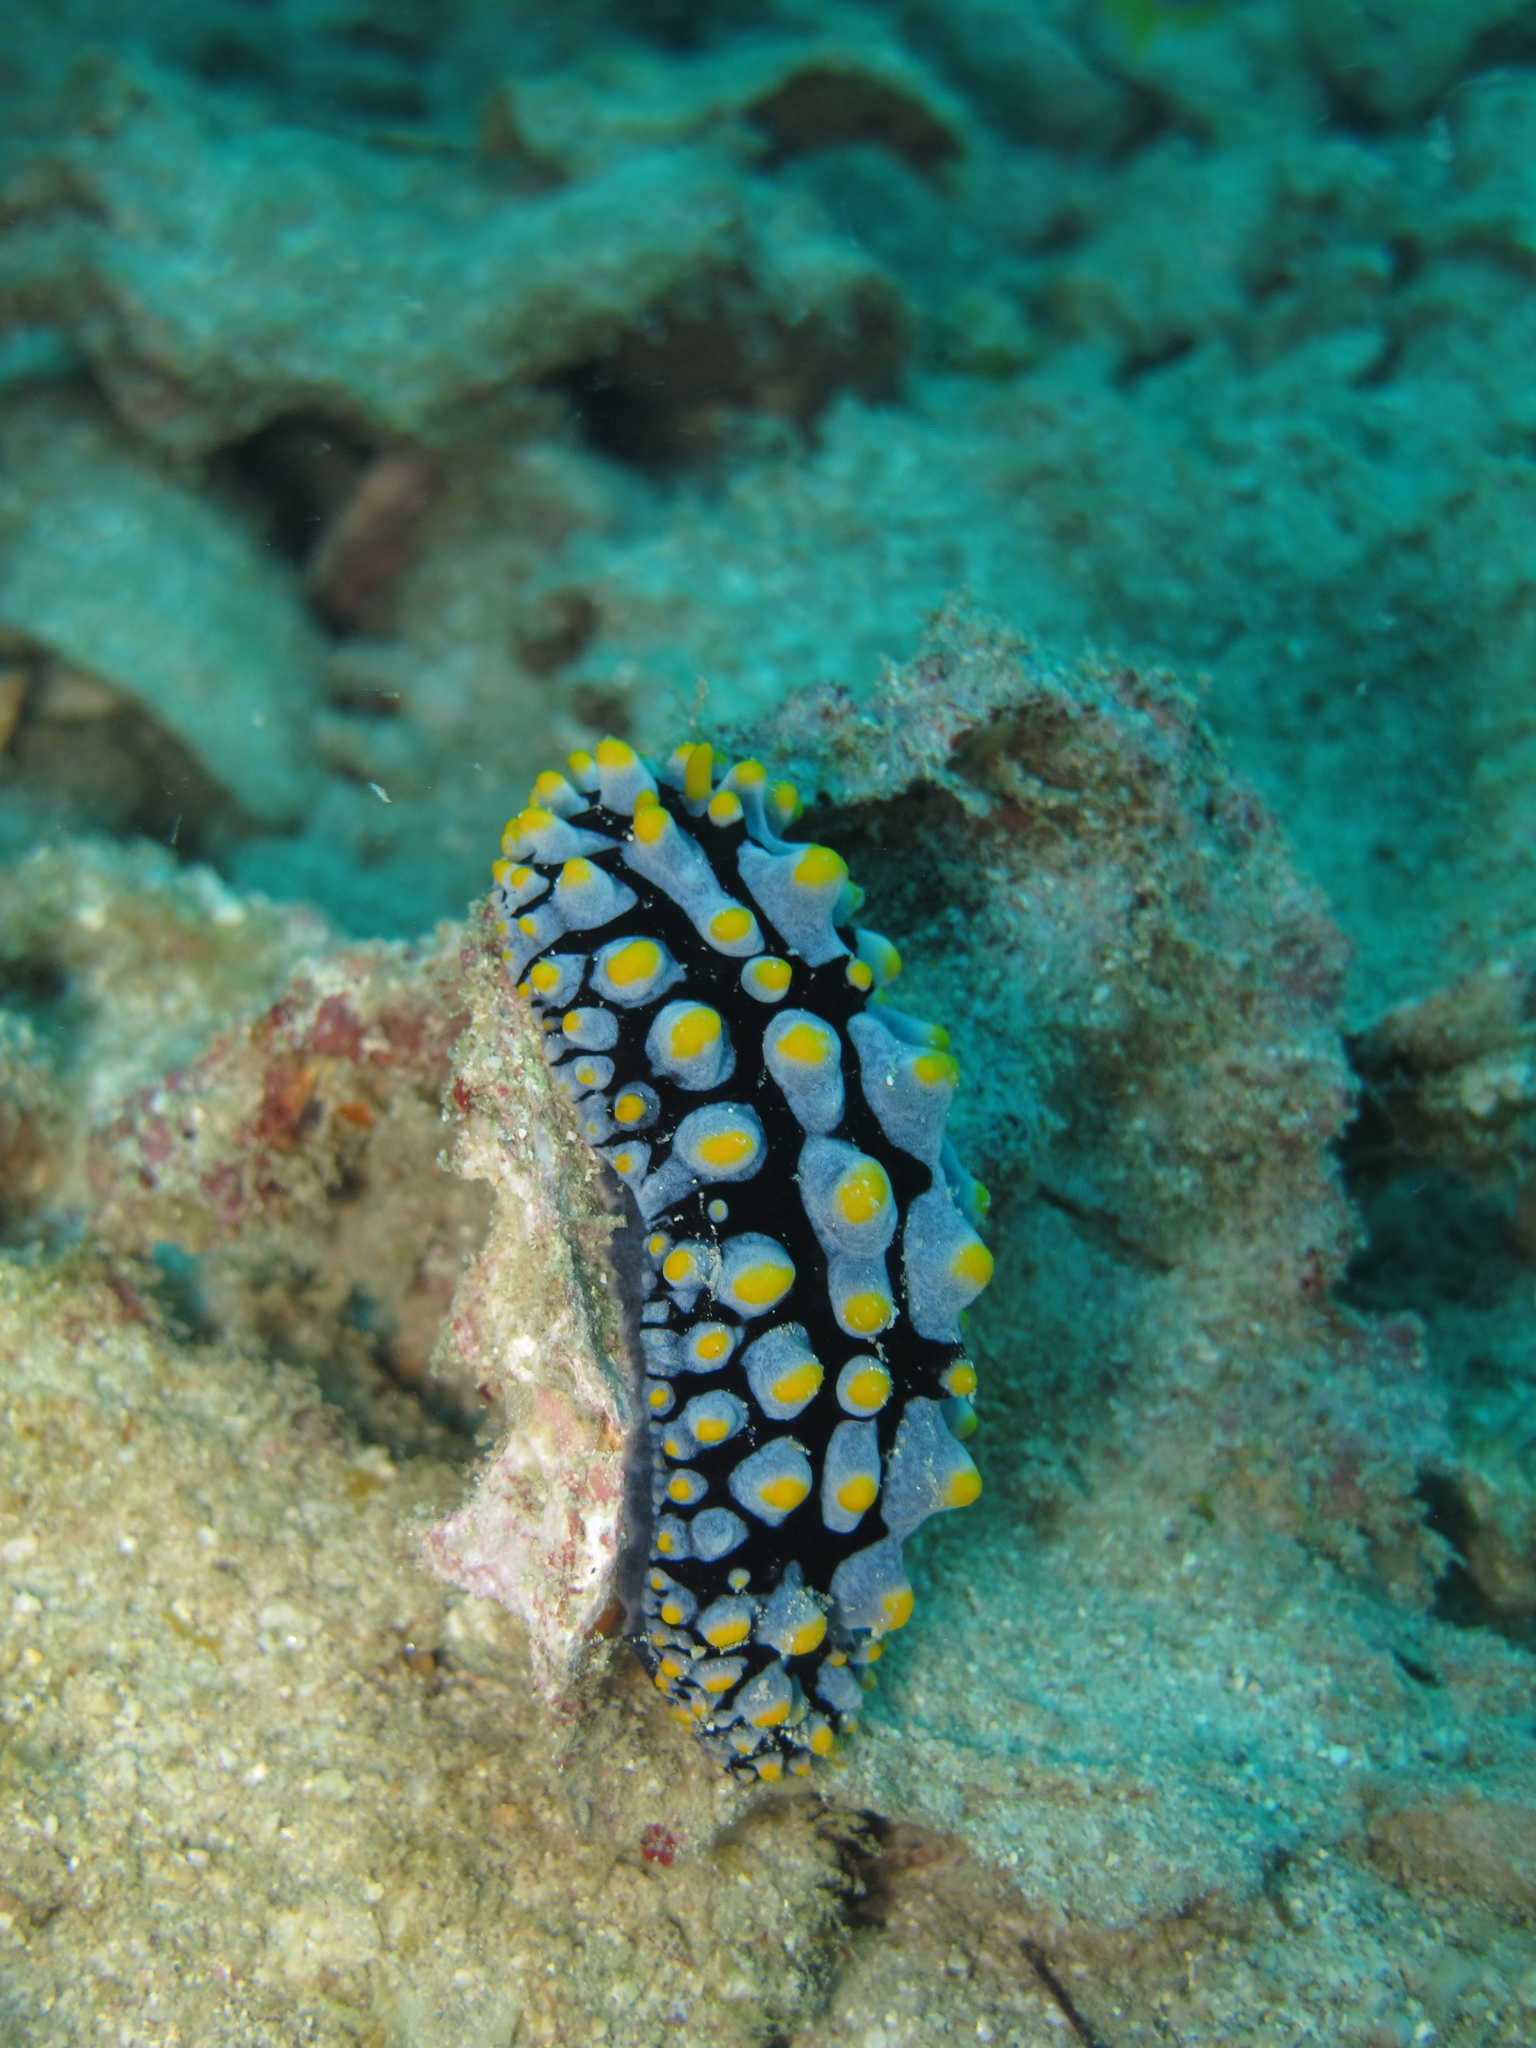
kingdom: Animalia
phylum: Mollusca
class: Gastropoda
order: Nudibranchia
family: Phyllidiidae
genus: Phyllidia
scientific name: Phyllidia varicosa
